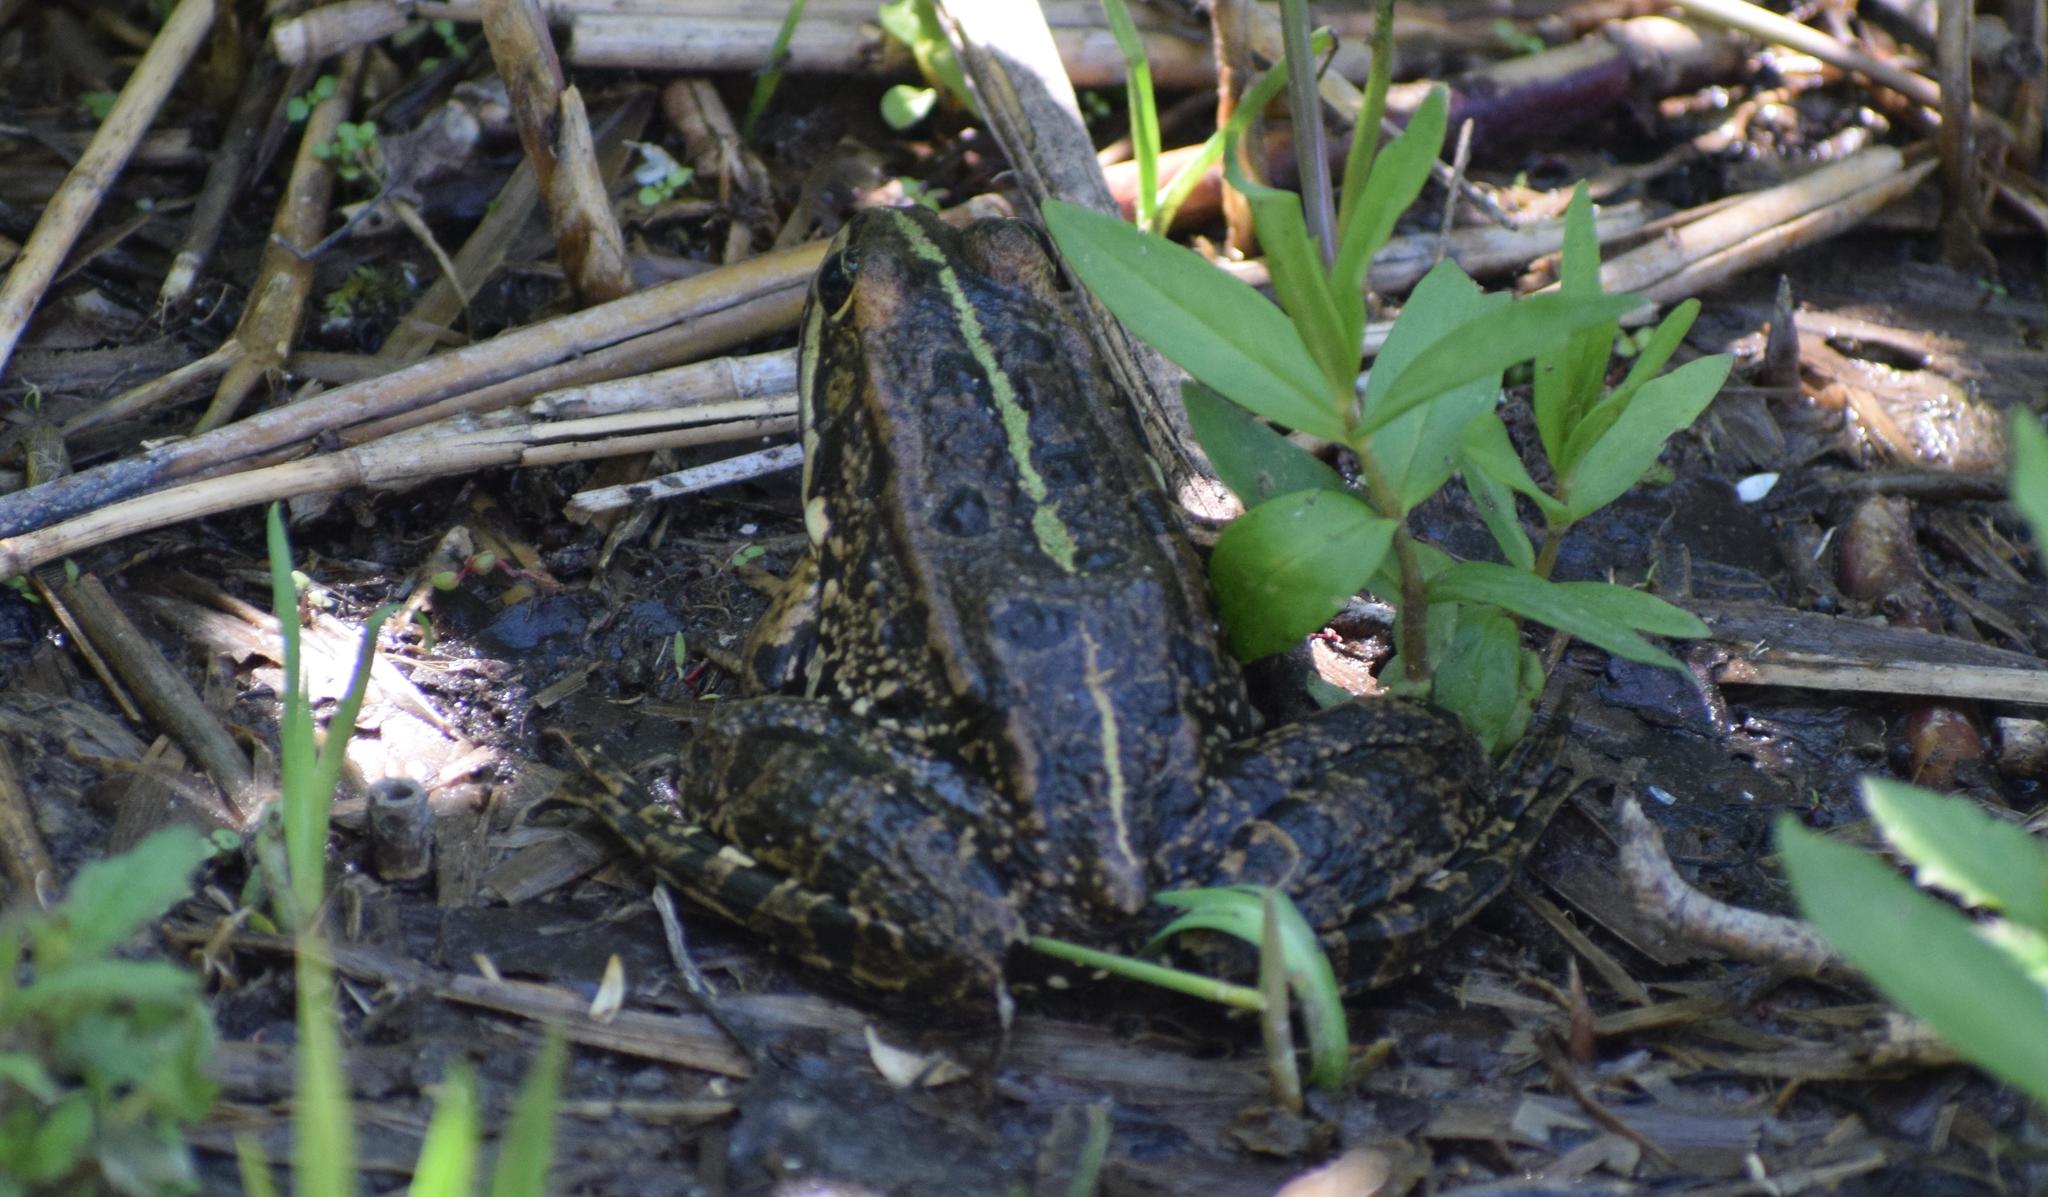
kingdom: Animalia
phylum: Chordata
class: Amphibia
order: Anura
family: Ranidae
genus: Pelophylax
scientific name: Pelophylax
